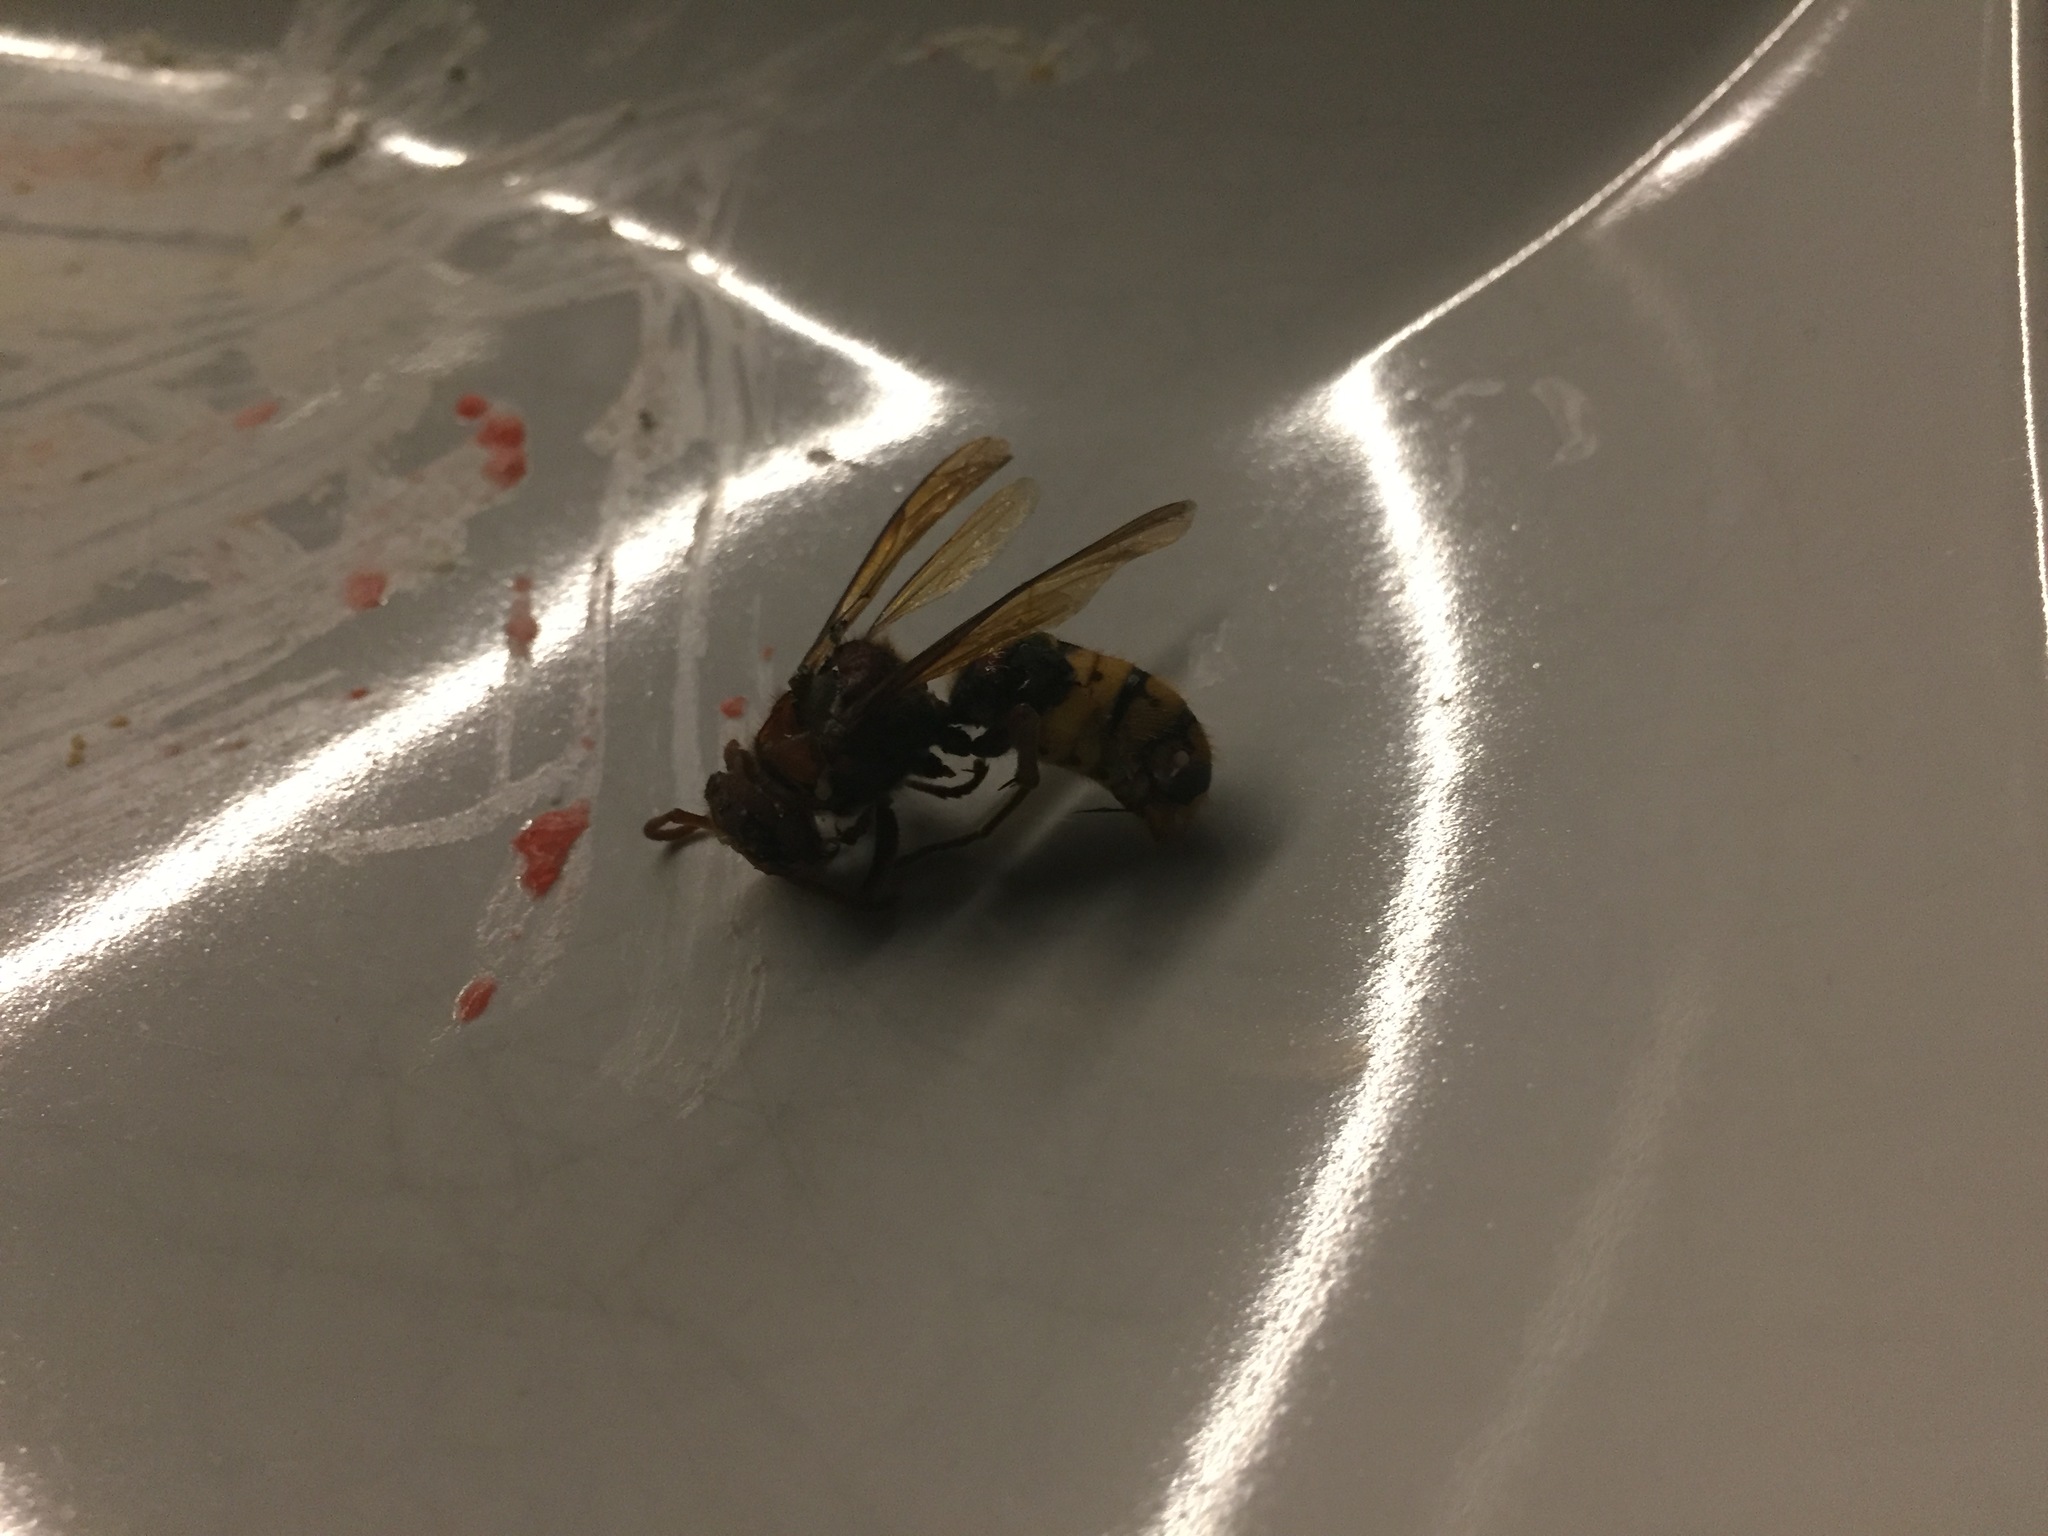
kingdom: Animalia
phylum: Arthropoda
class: Insecta
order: Hymenoptera
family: Vespidae
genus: Vespa
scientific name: Vespa crabro
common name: Hornet
